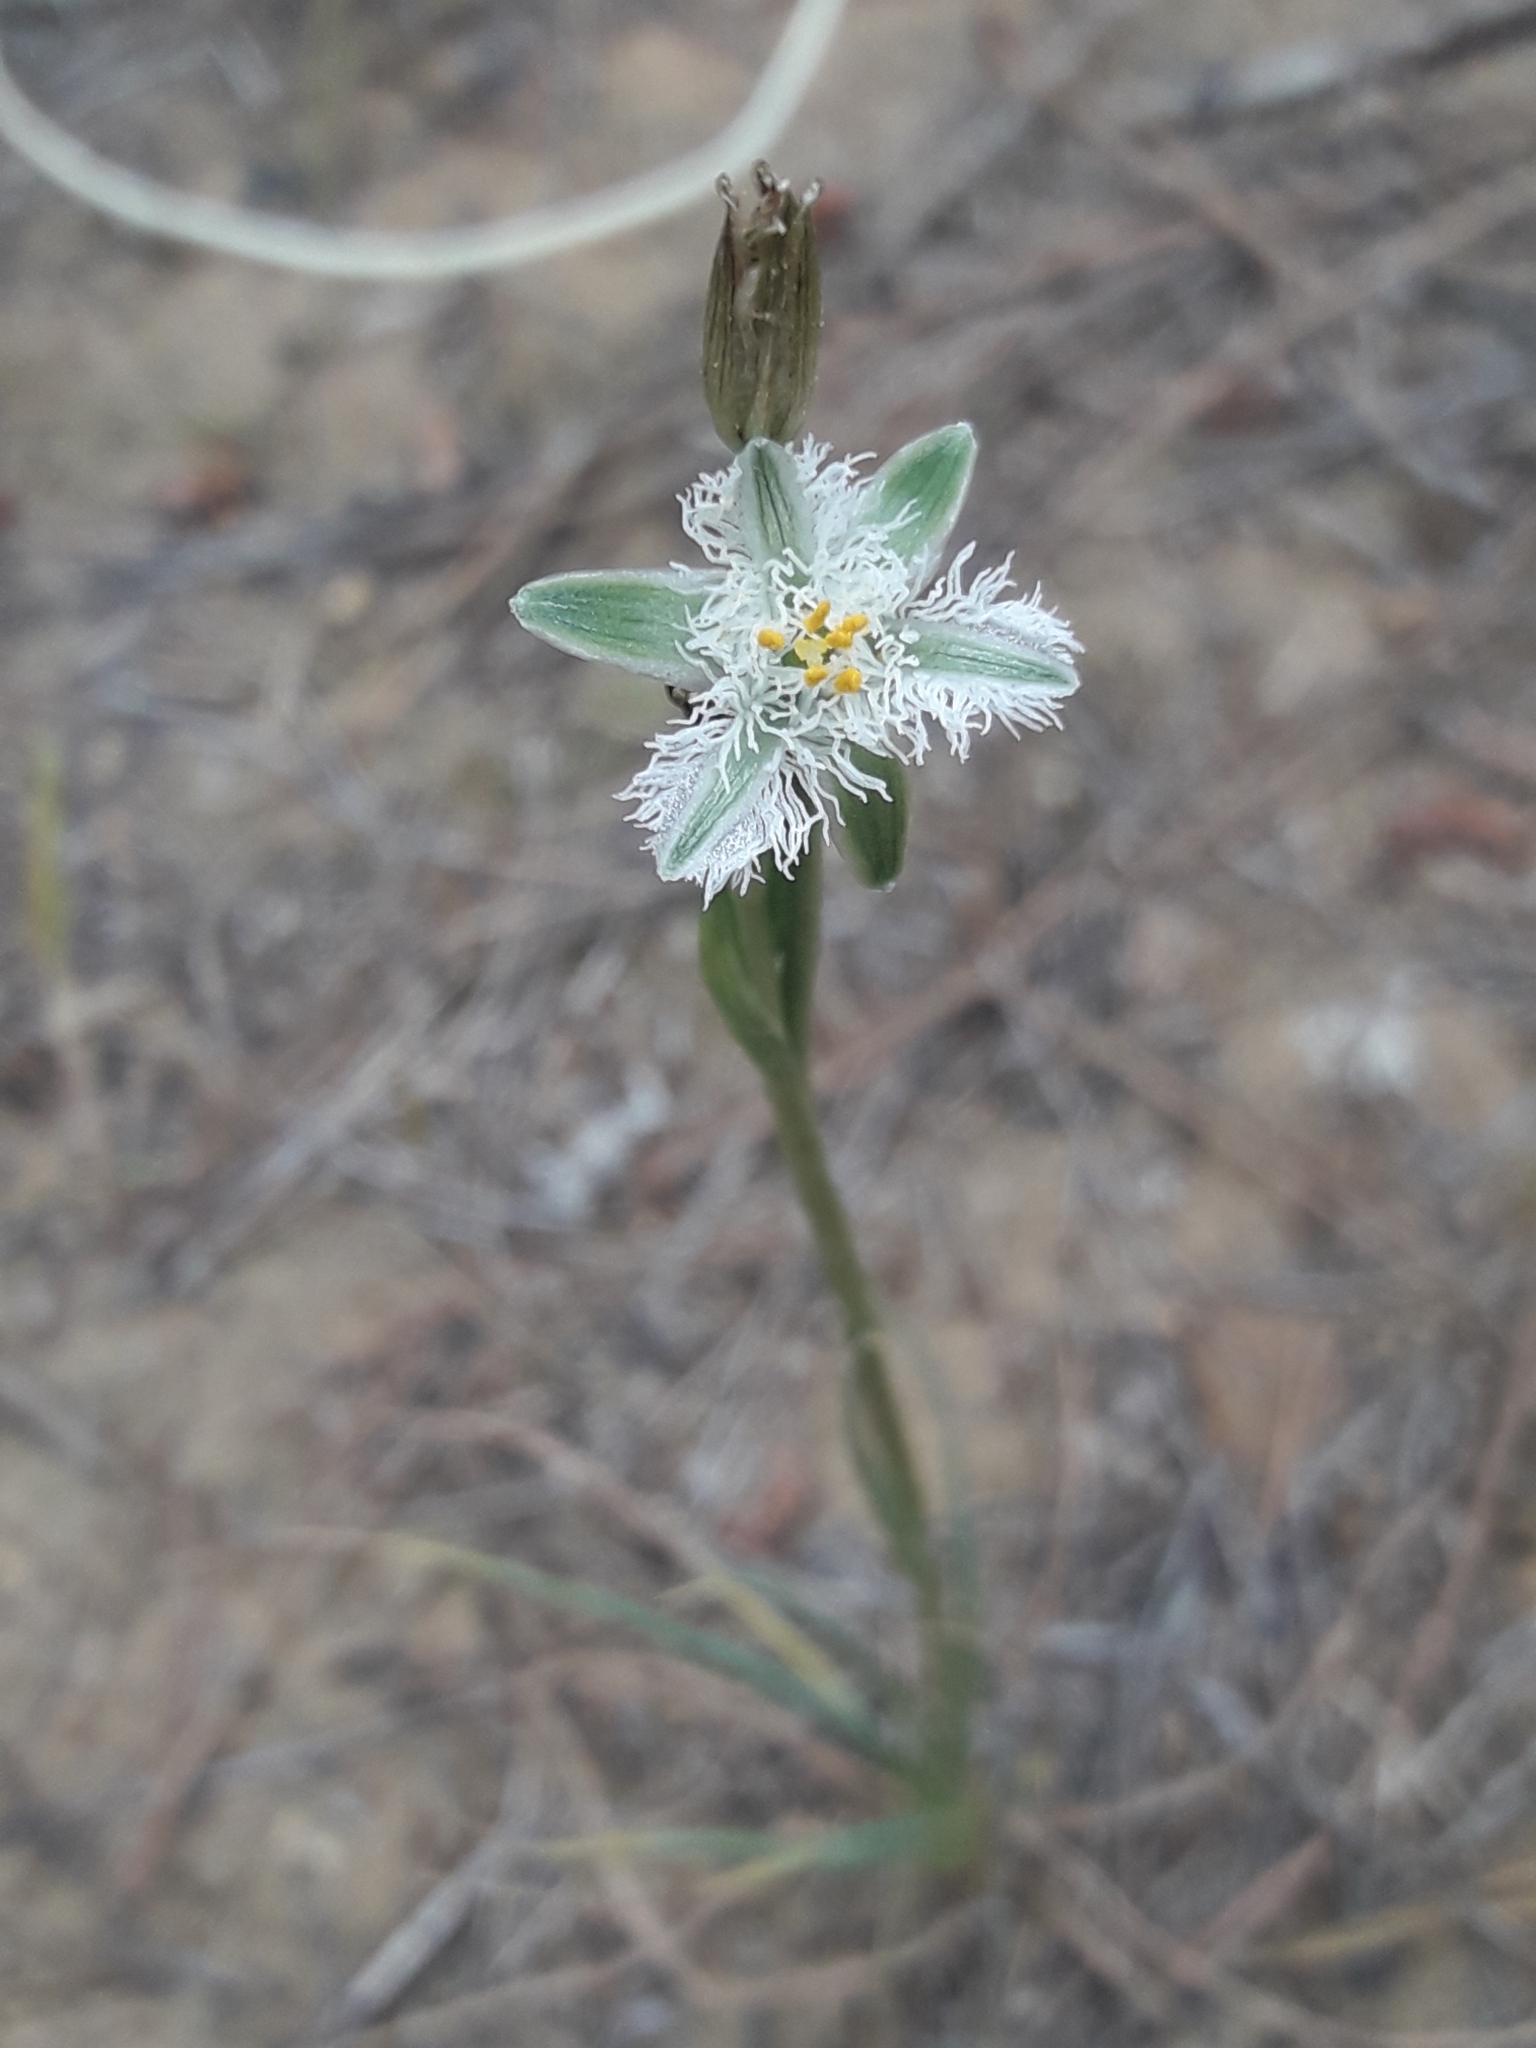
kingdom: Plantae
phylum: Tracheophyta
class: Liliopsida
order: Asparagales
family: Asparagaceae
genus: Trichopetalum
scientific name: Trichopetalum plumosum
